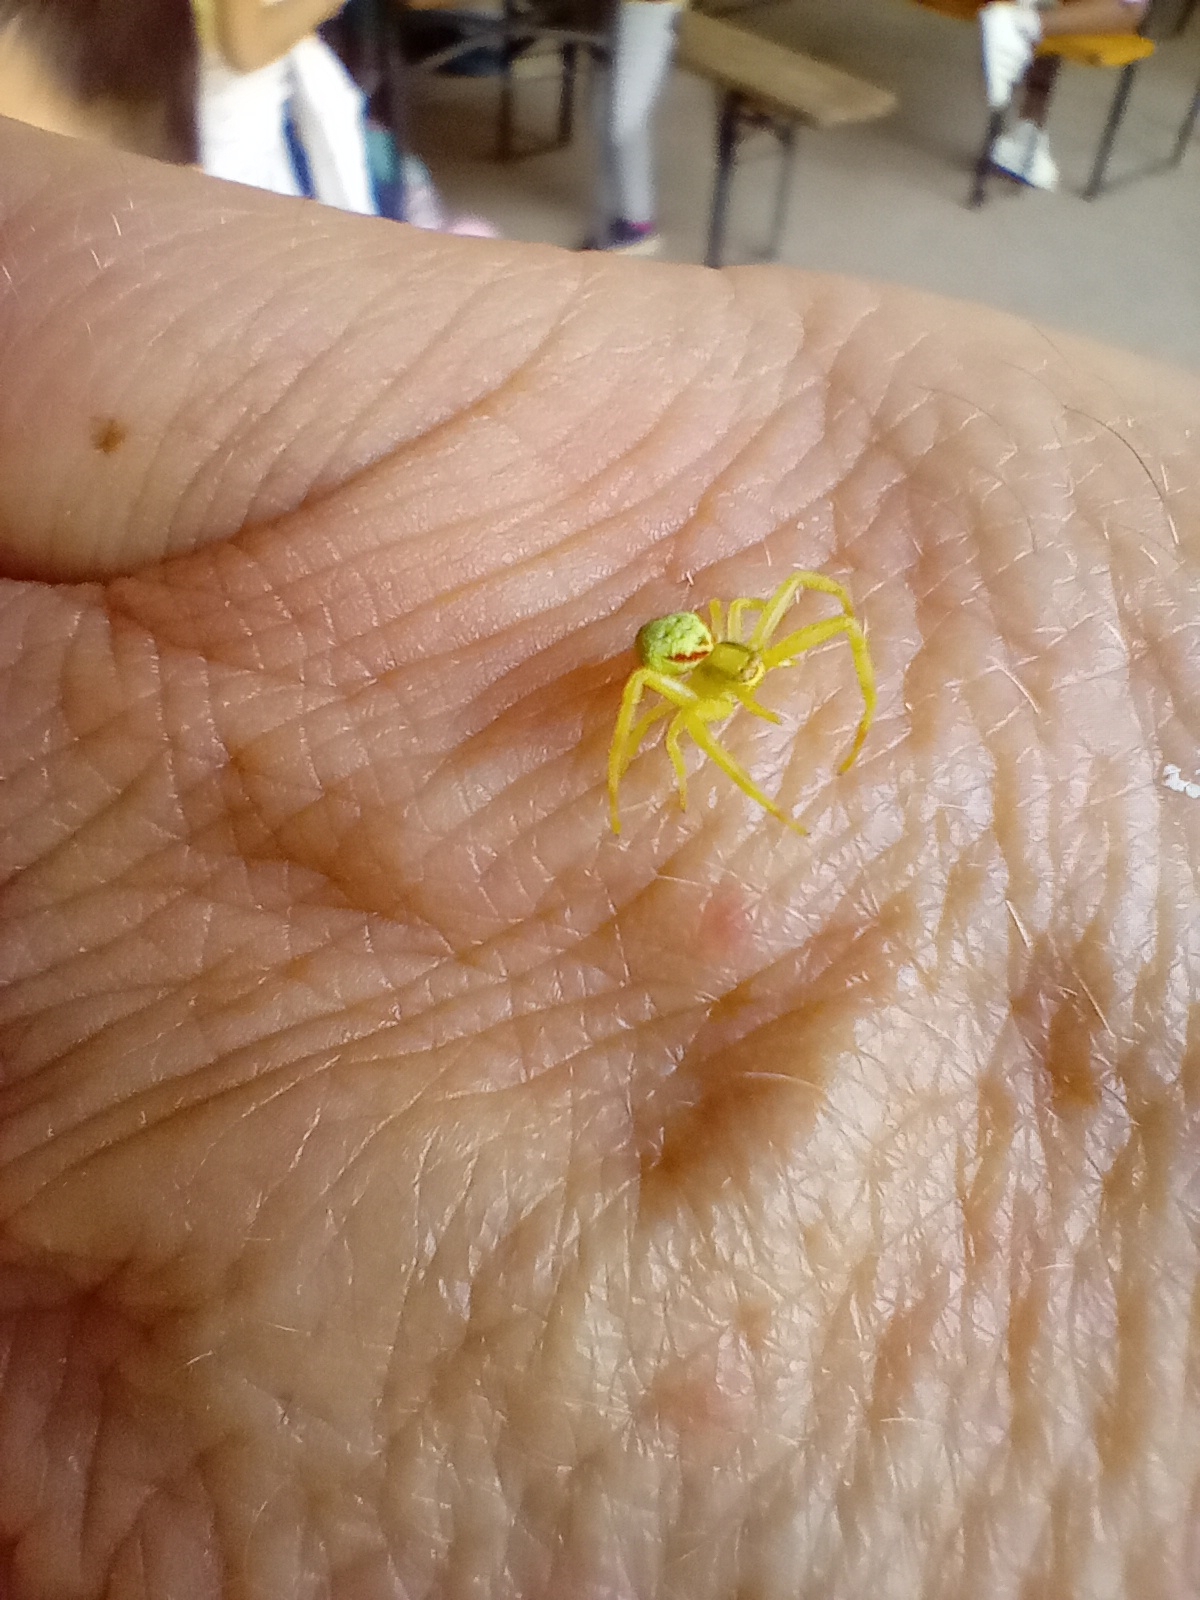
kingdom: Animalia
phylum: Arthropoda
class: Arachnida
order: Araneae
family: Thomisidae
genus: Misumena
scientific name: Misumena vatia
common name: Goldenrod crab spider
